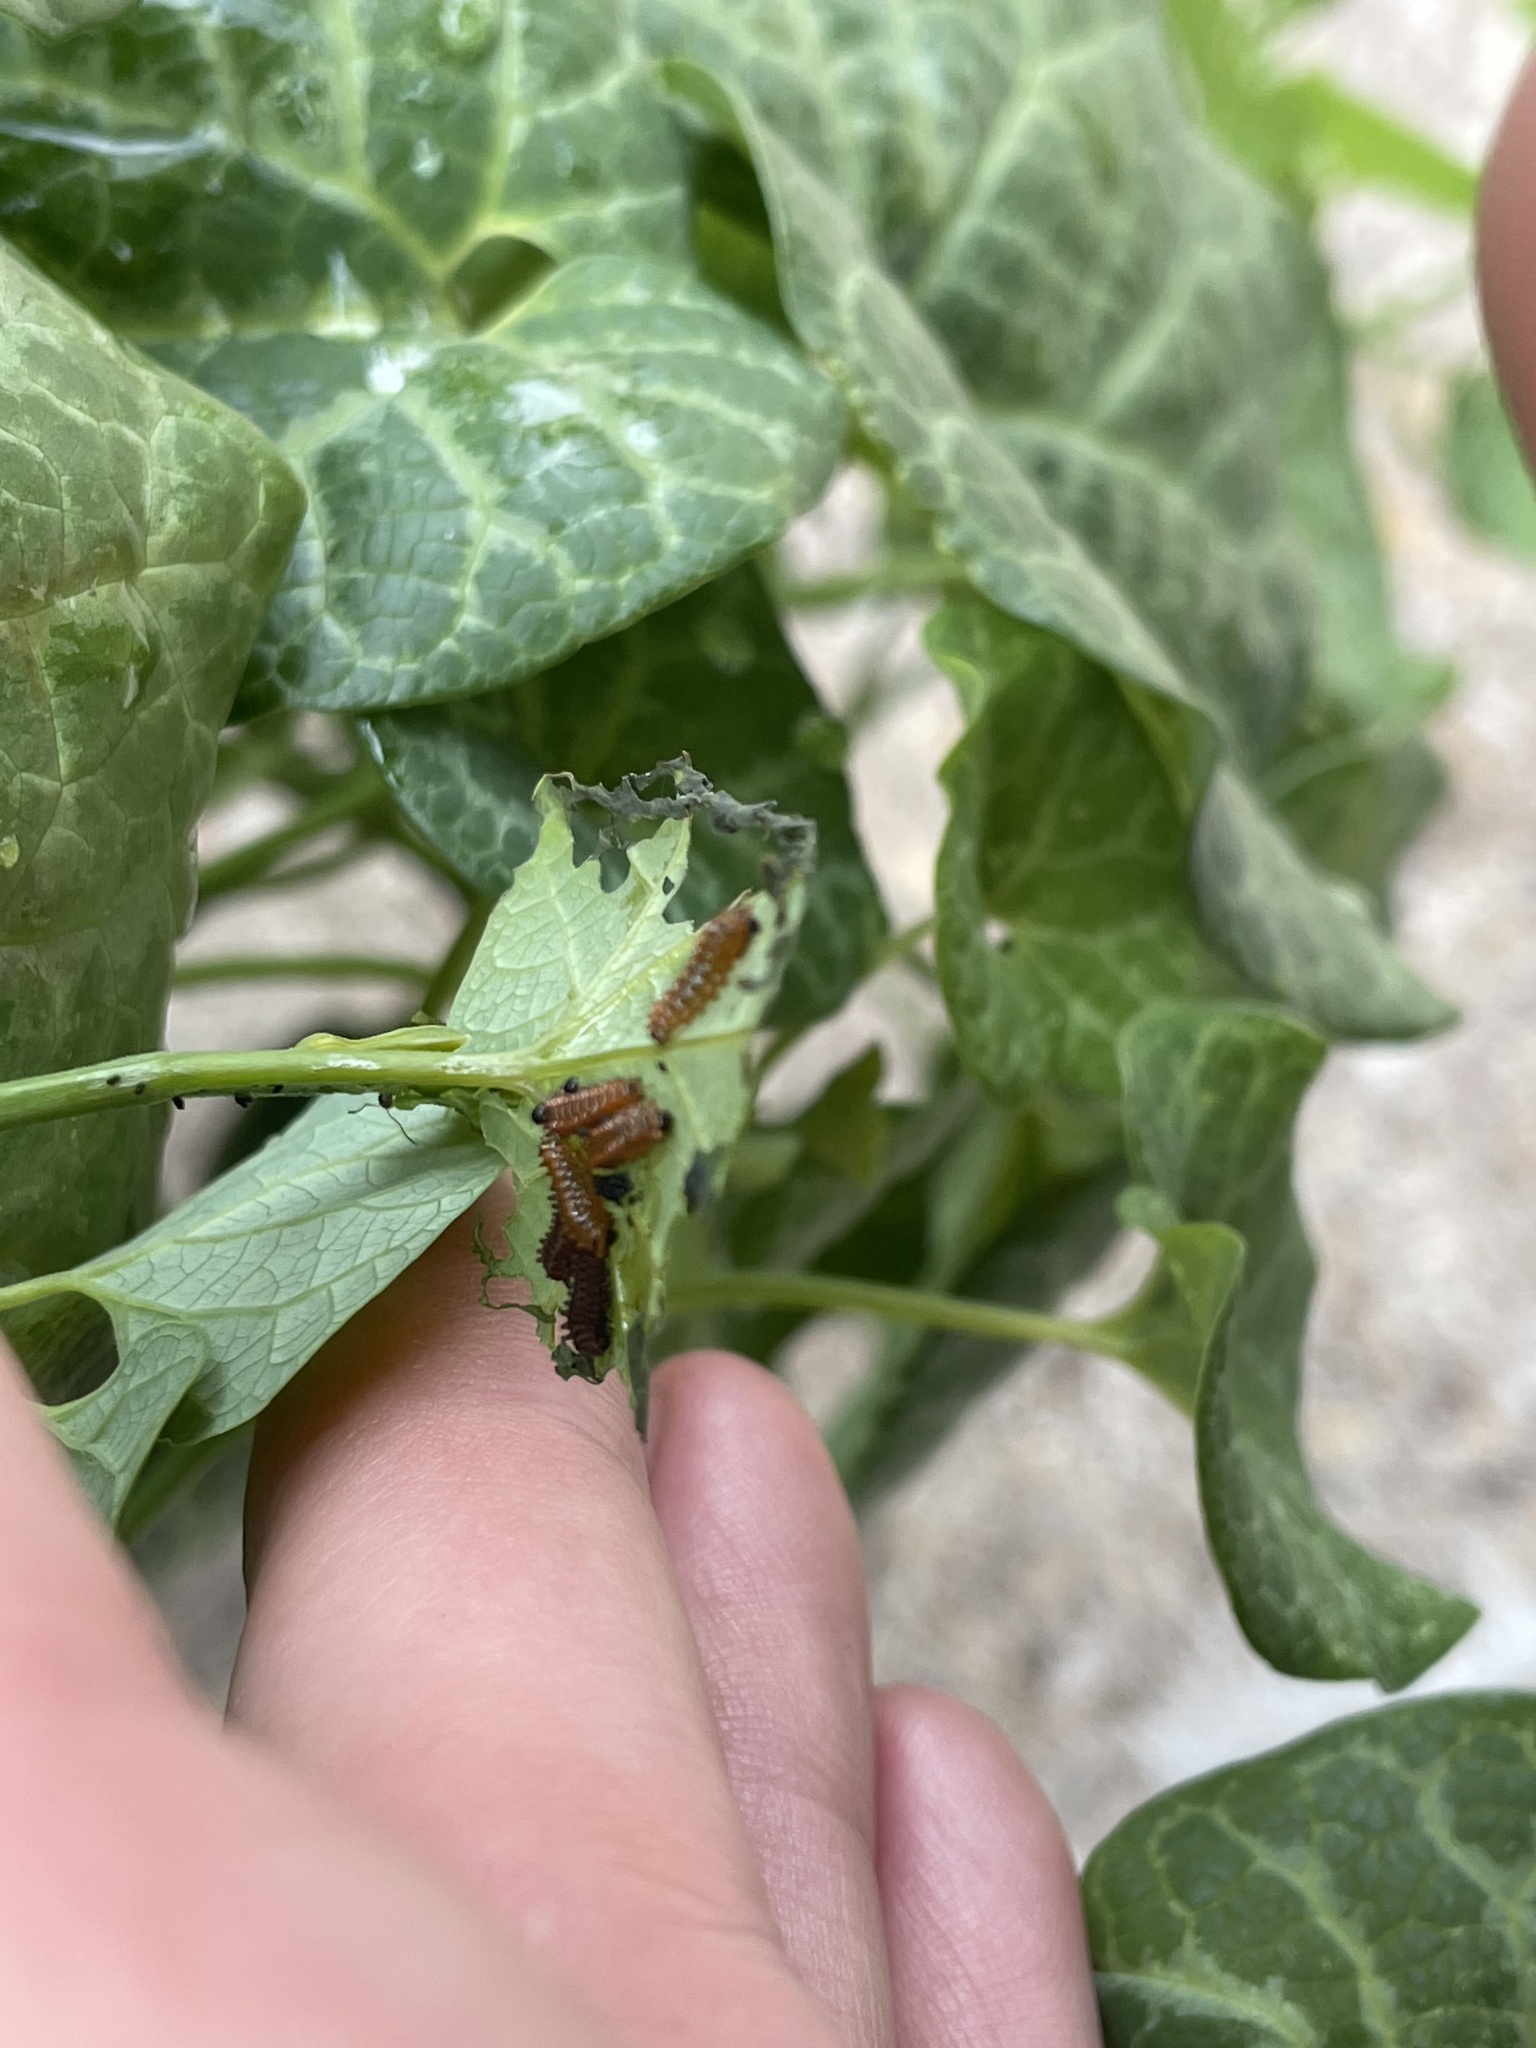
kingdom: Animalia
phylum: Arthropoda
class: Insecta
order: Lepidoptera
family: Papilionidae
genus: Battus
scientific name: Battus philenor
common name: Pipevine swallowtail
